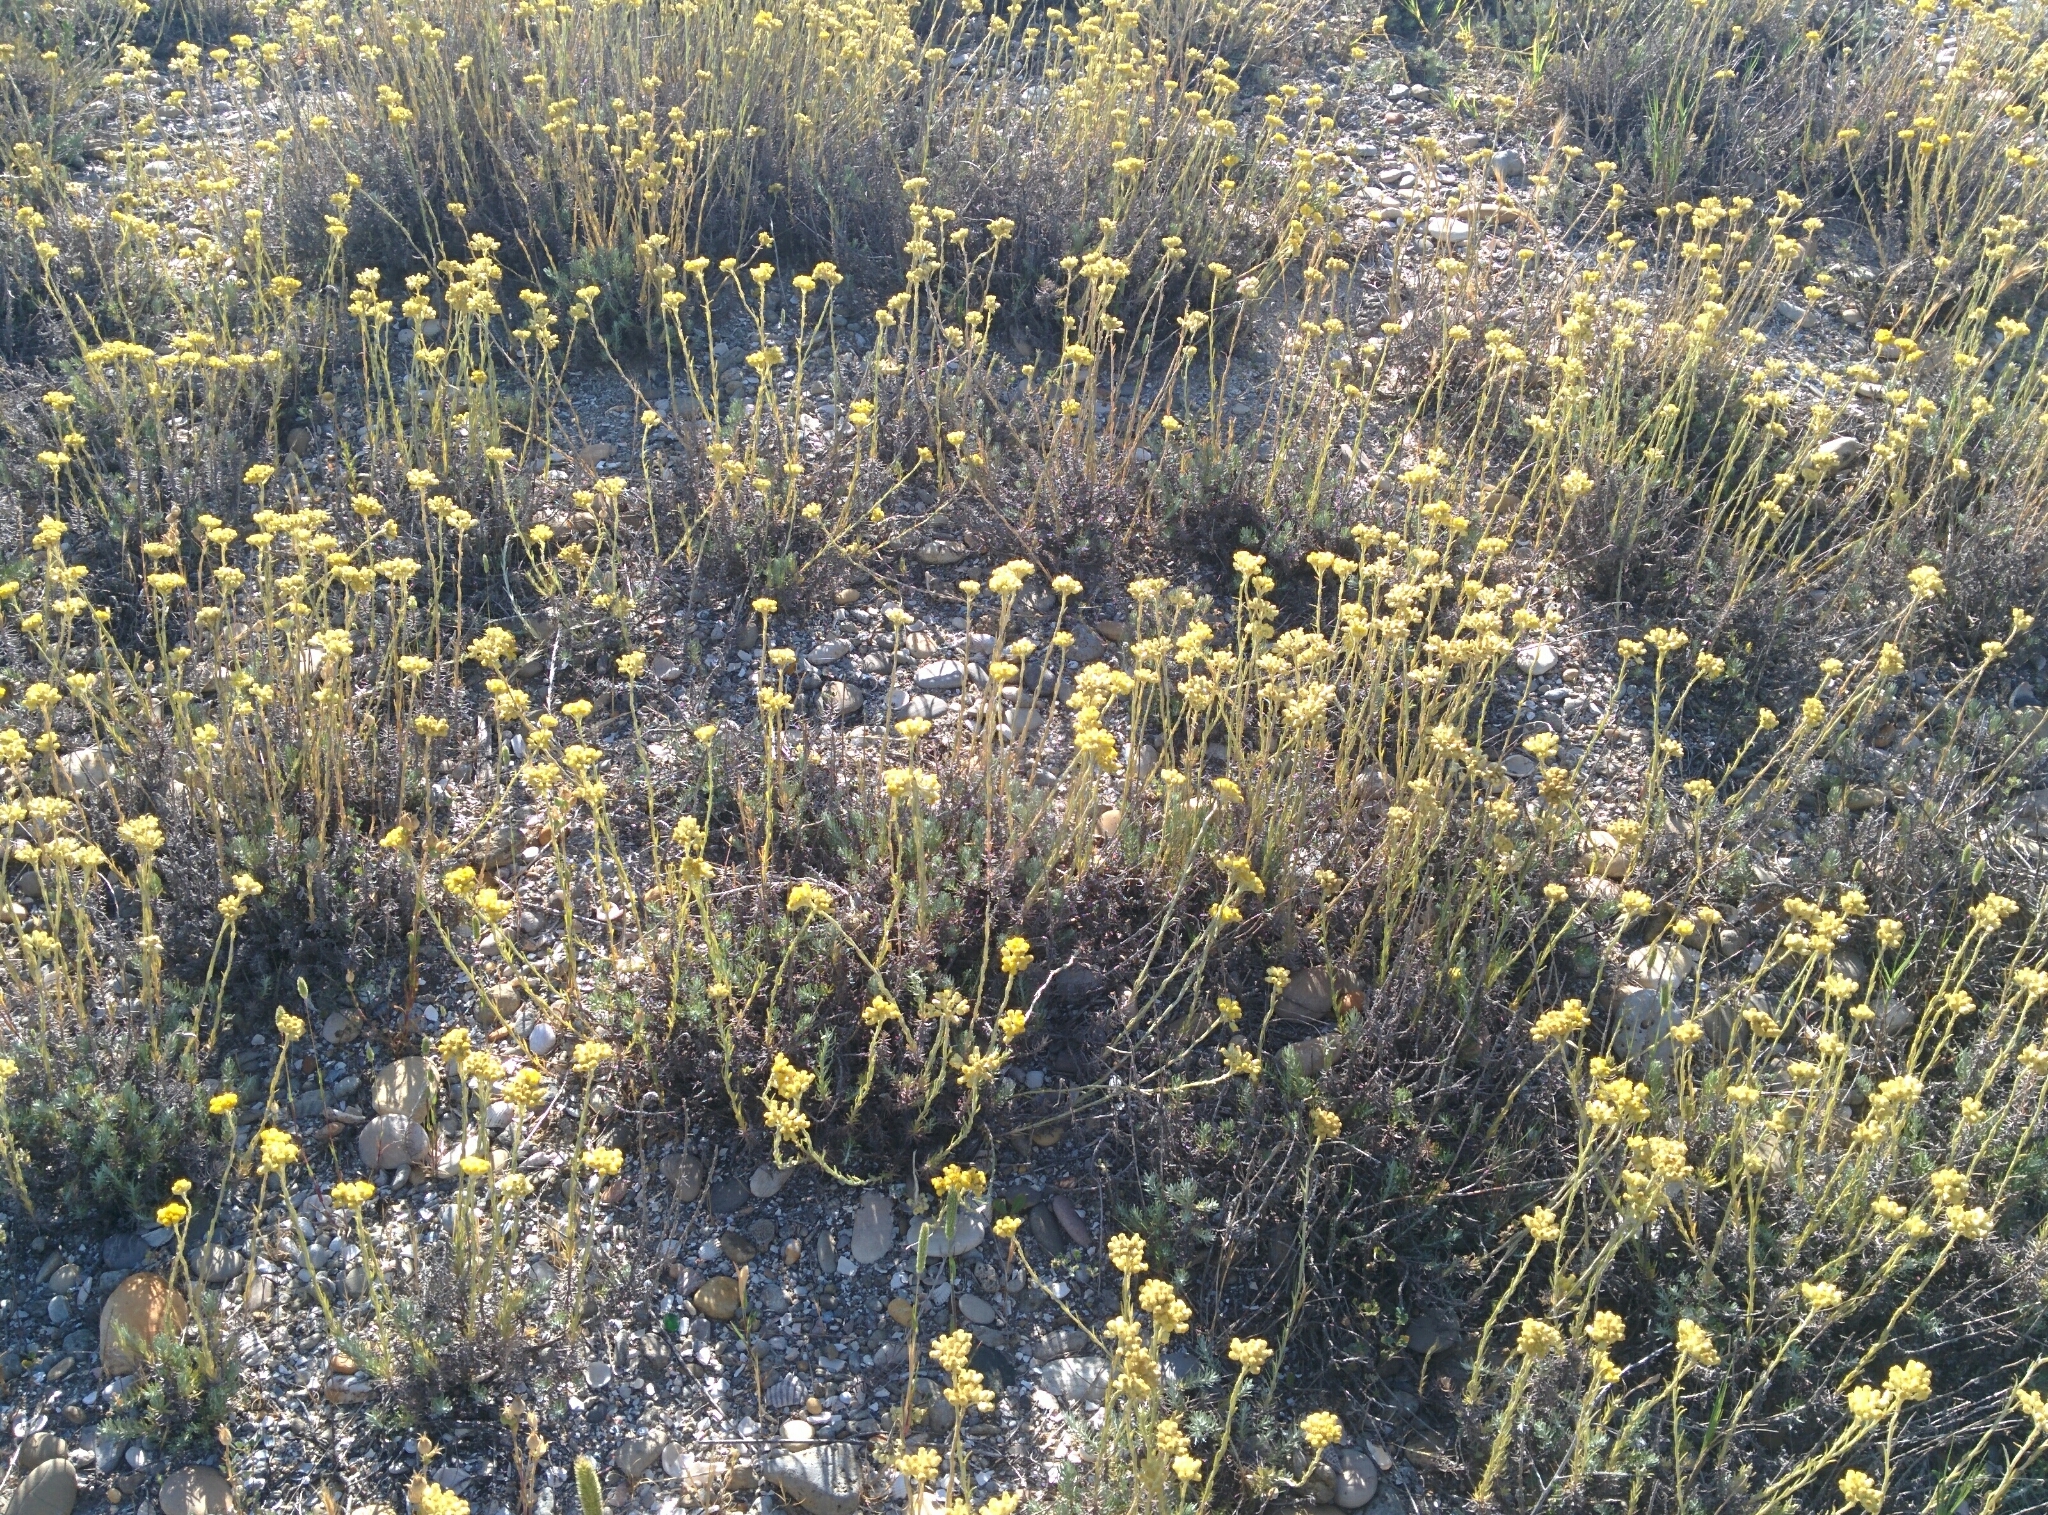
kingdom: Plantae
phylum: Tracheophyta
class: Magnoliopsida
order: Asterales
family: Asteraceae
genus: Helichrysum
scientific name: Helichrysum stoechas
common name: Goldilocks
